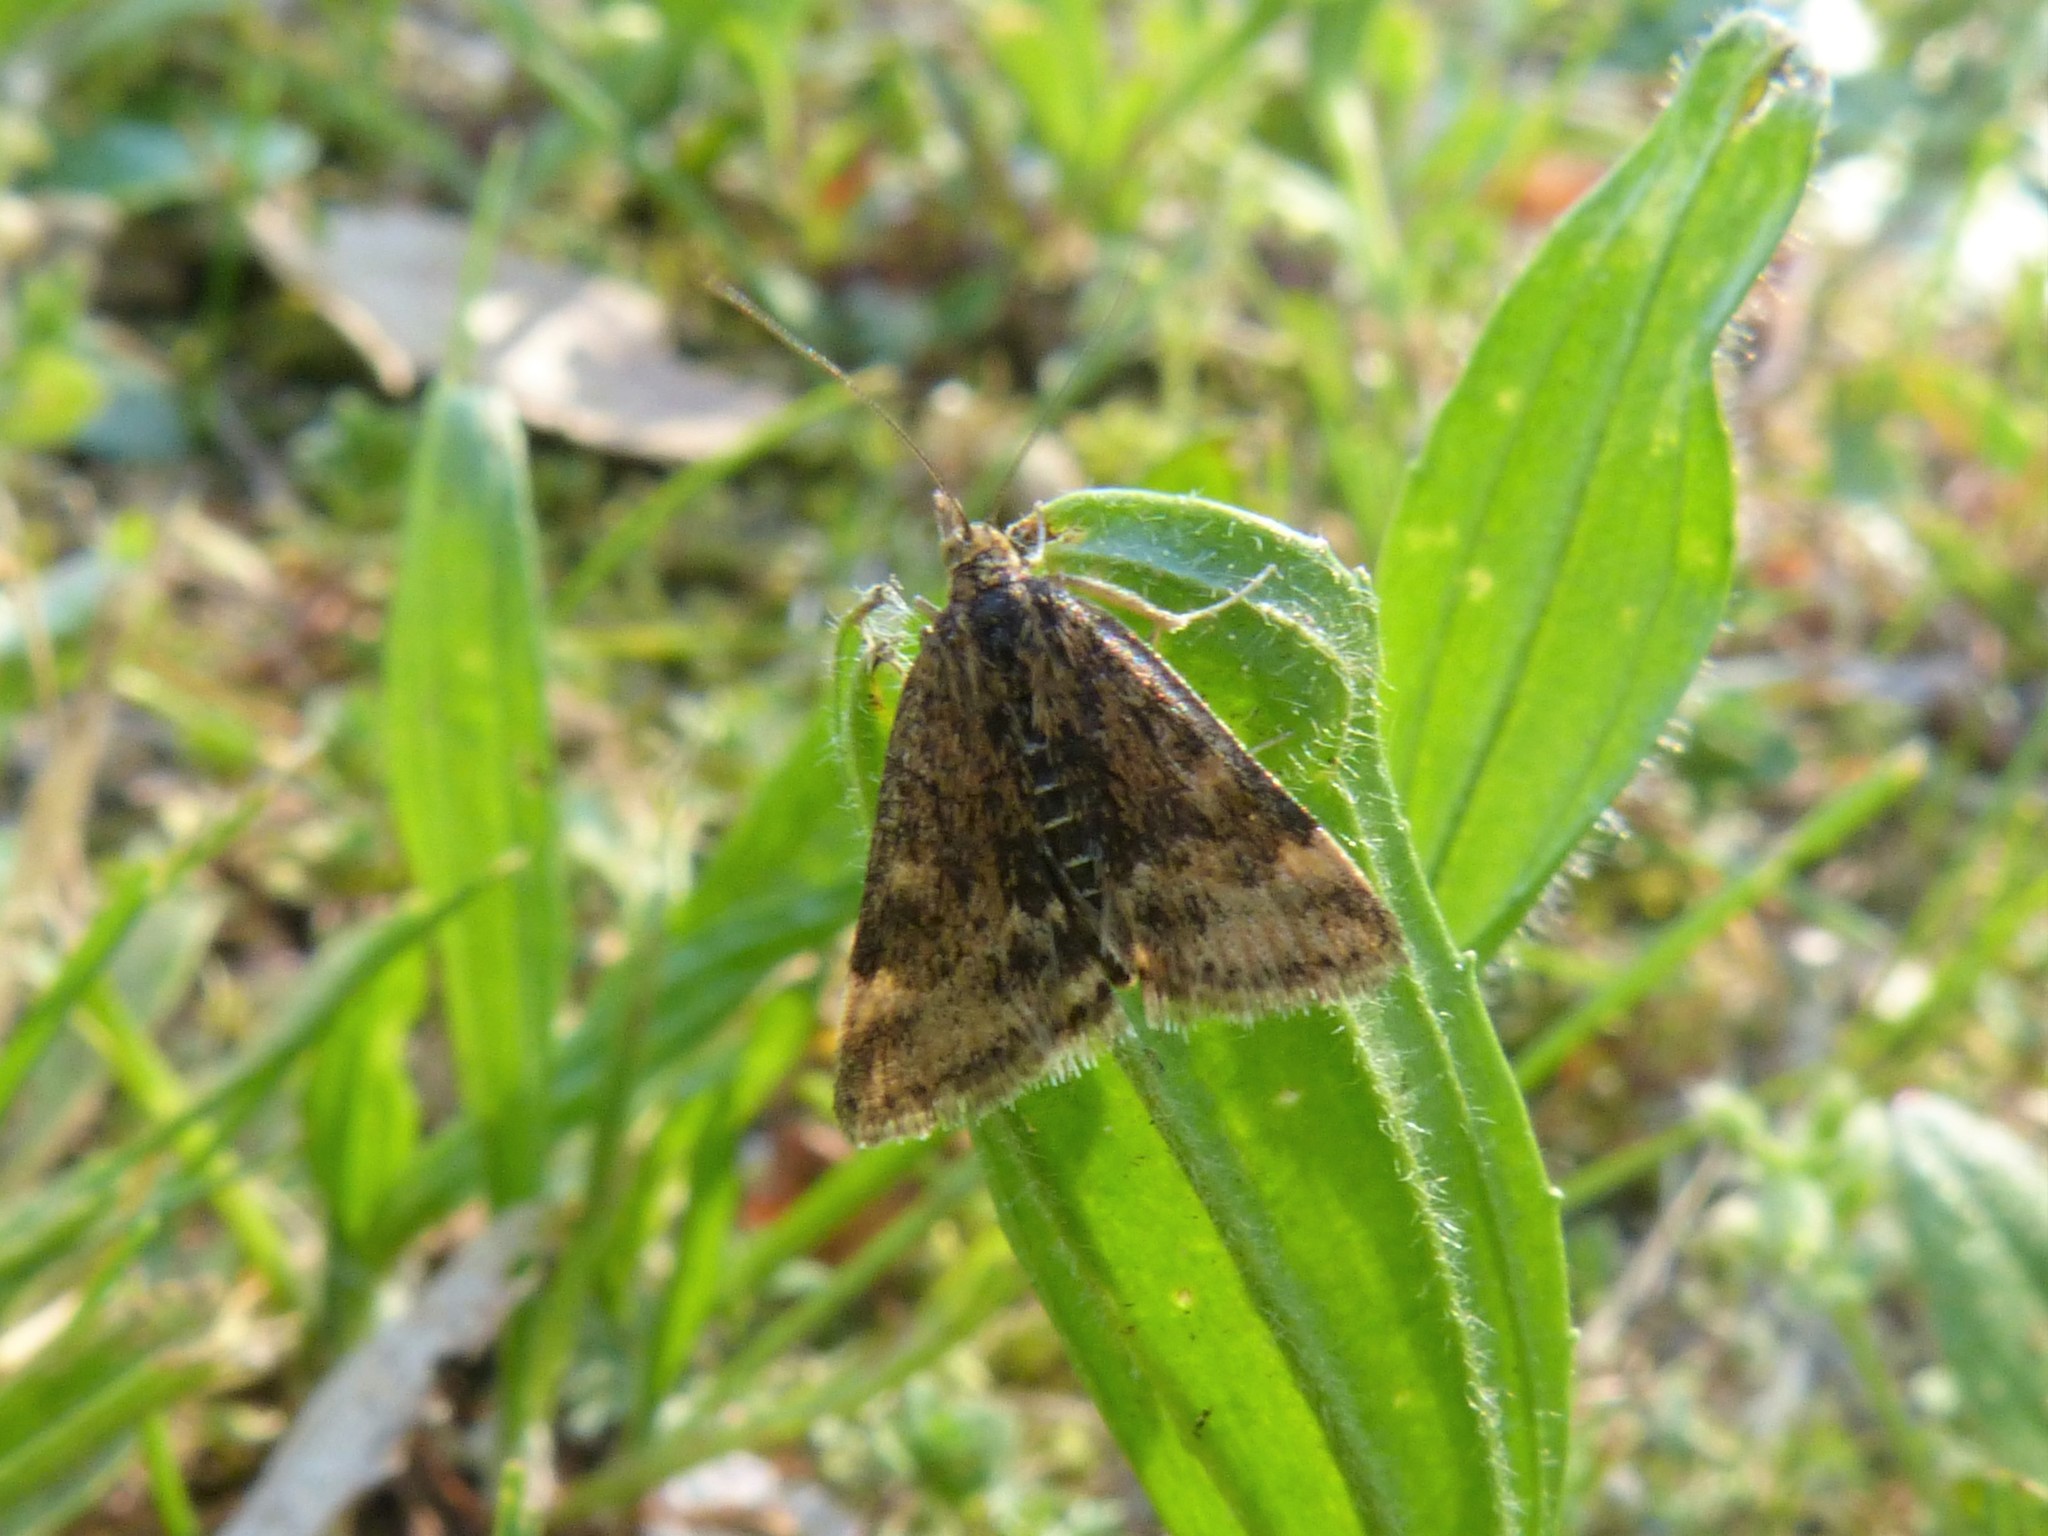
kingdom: Animalia
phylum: Arthropoda
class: Insecta
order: Lepidoptera
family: Crambidae
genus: Pyrausta
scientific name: Pyrausta despicata
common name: Straw-barred pearl
